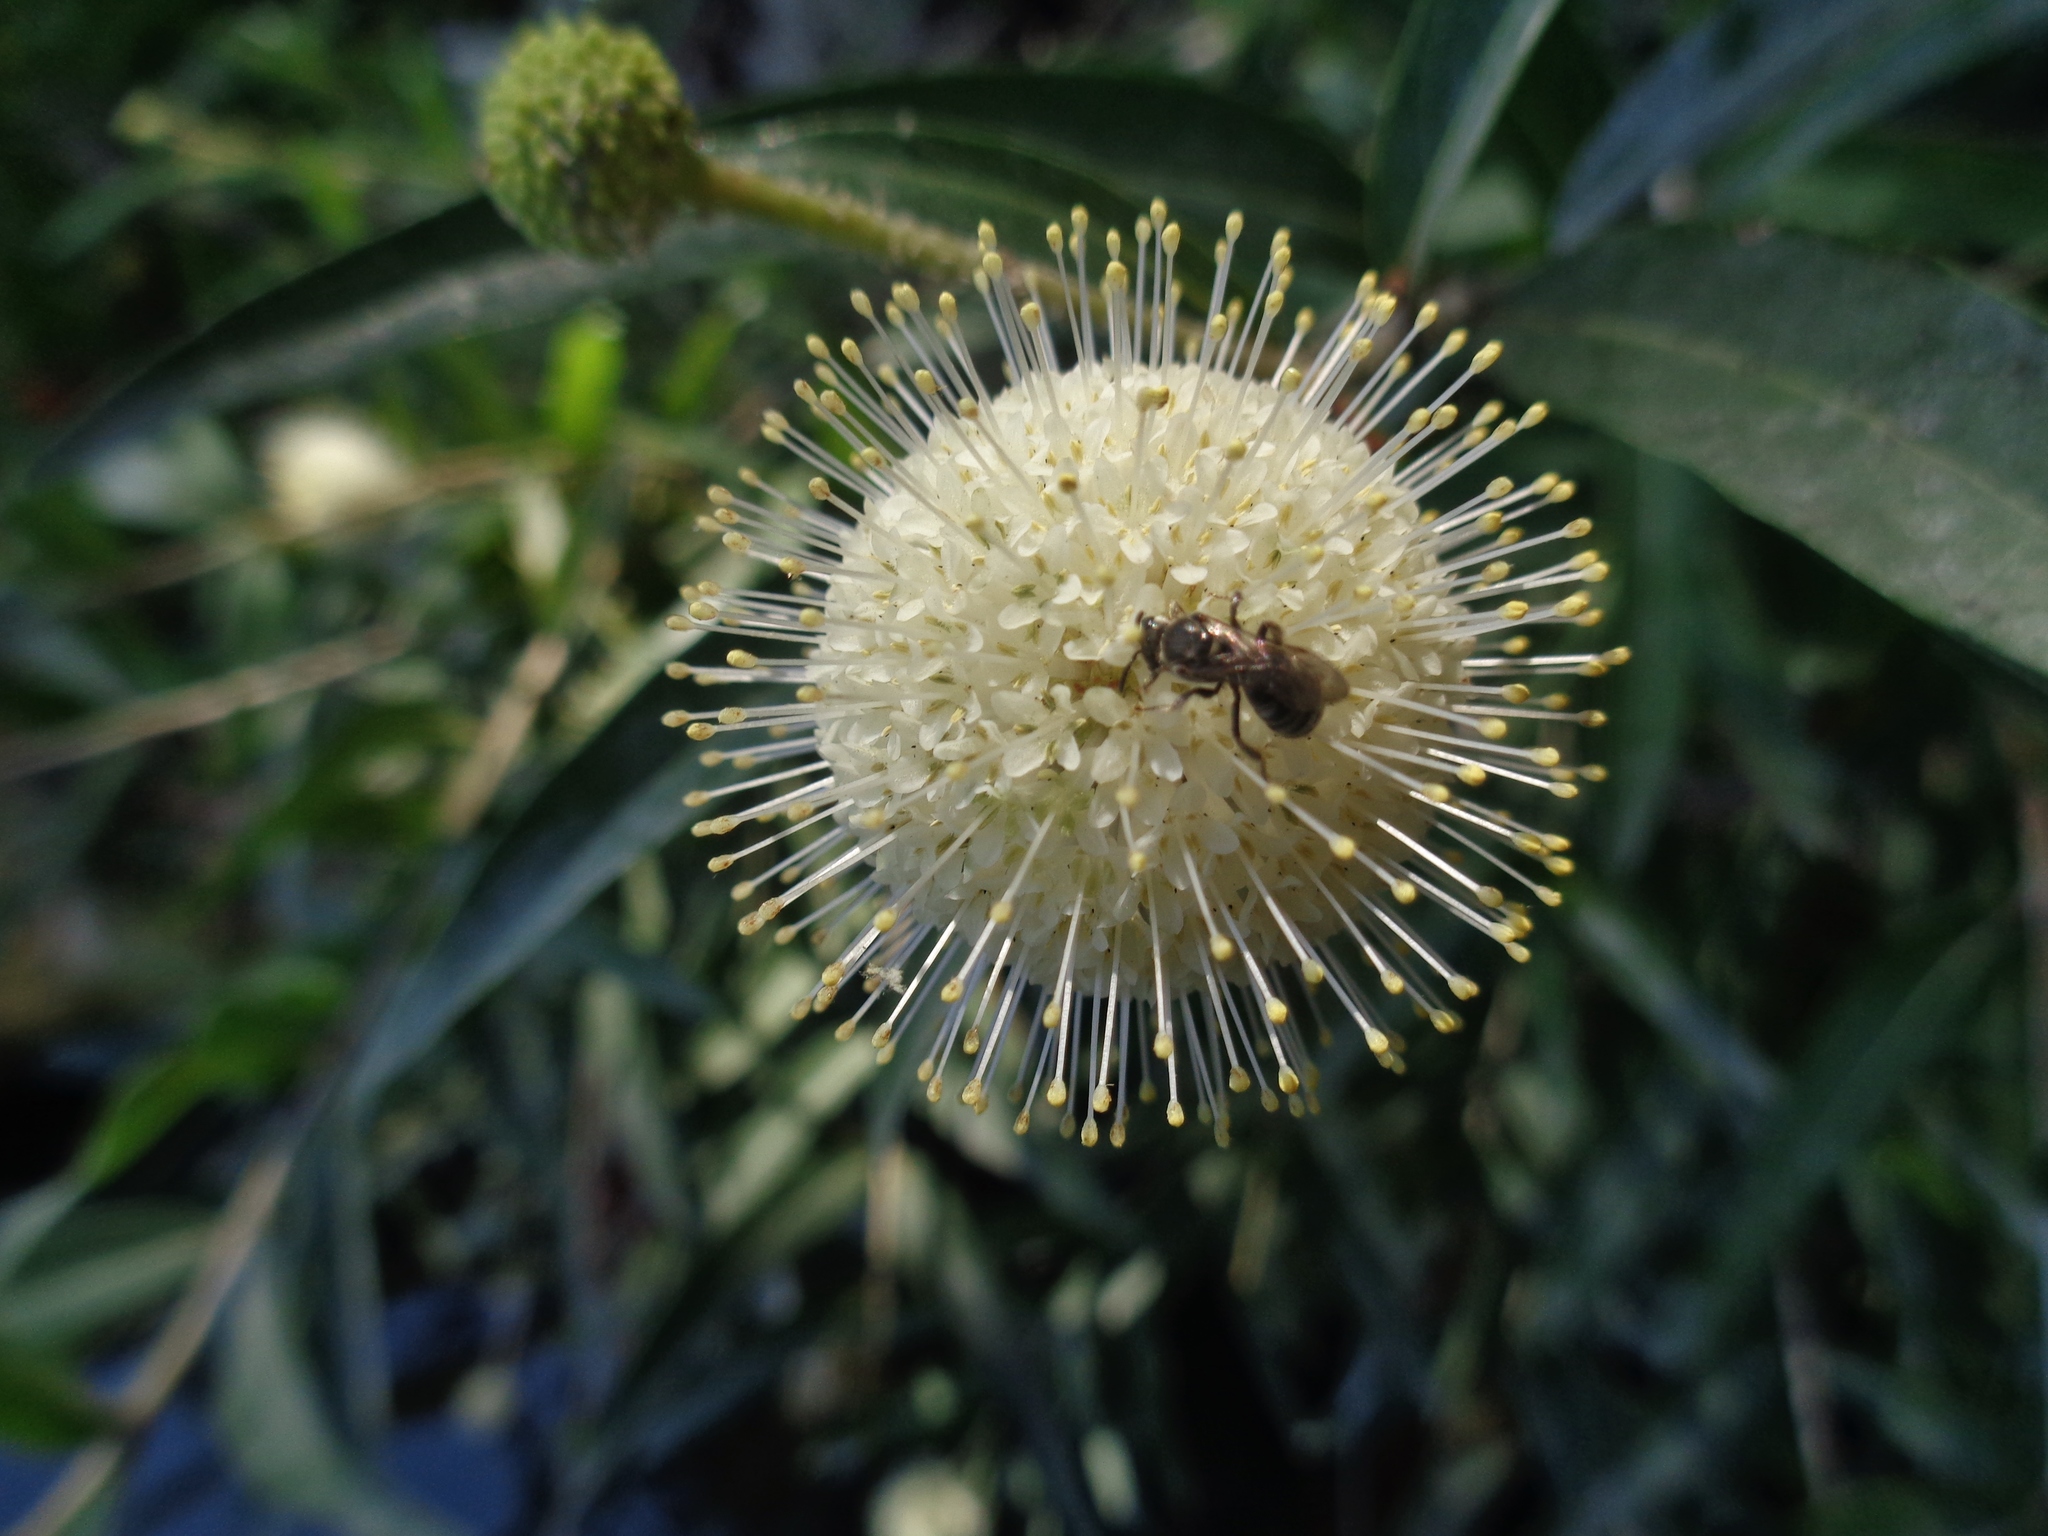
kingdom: Plantae
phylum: Tracheophyta
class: Magnoliopsida
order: Gentianales
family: Rubiaceae
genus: Cephalanthus
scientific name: Cephalanthus occidentalis
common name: Button-willow
